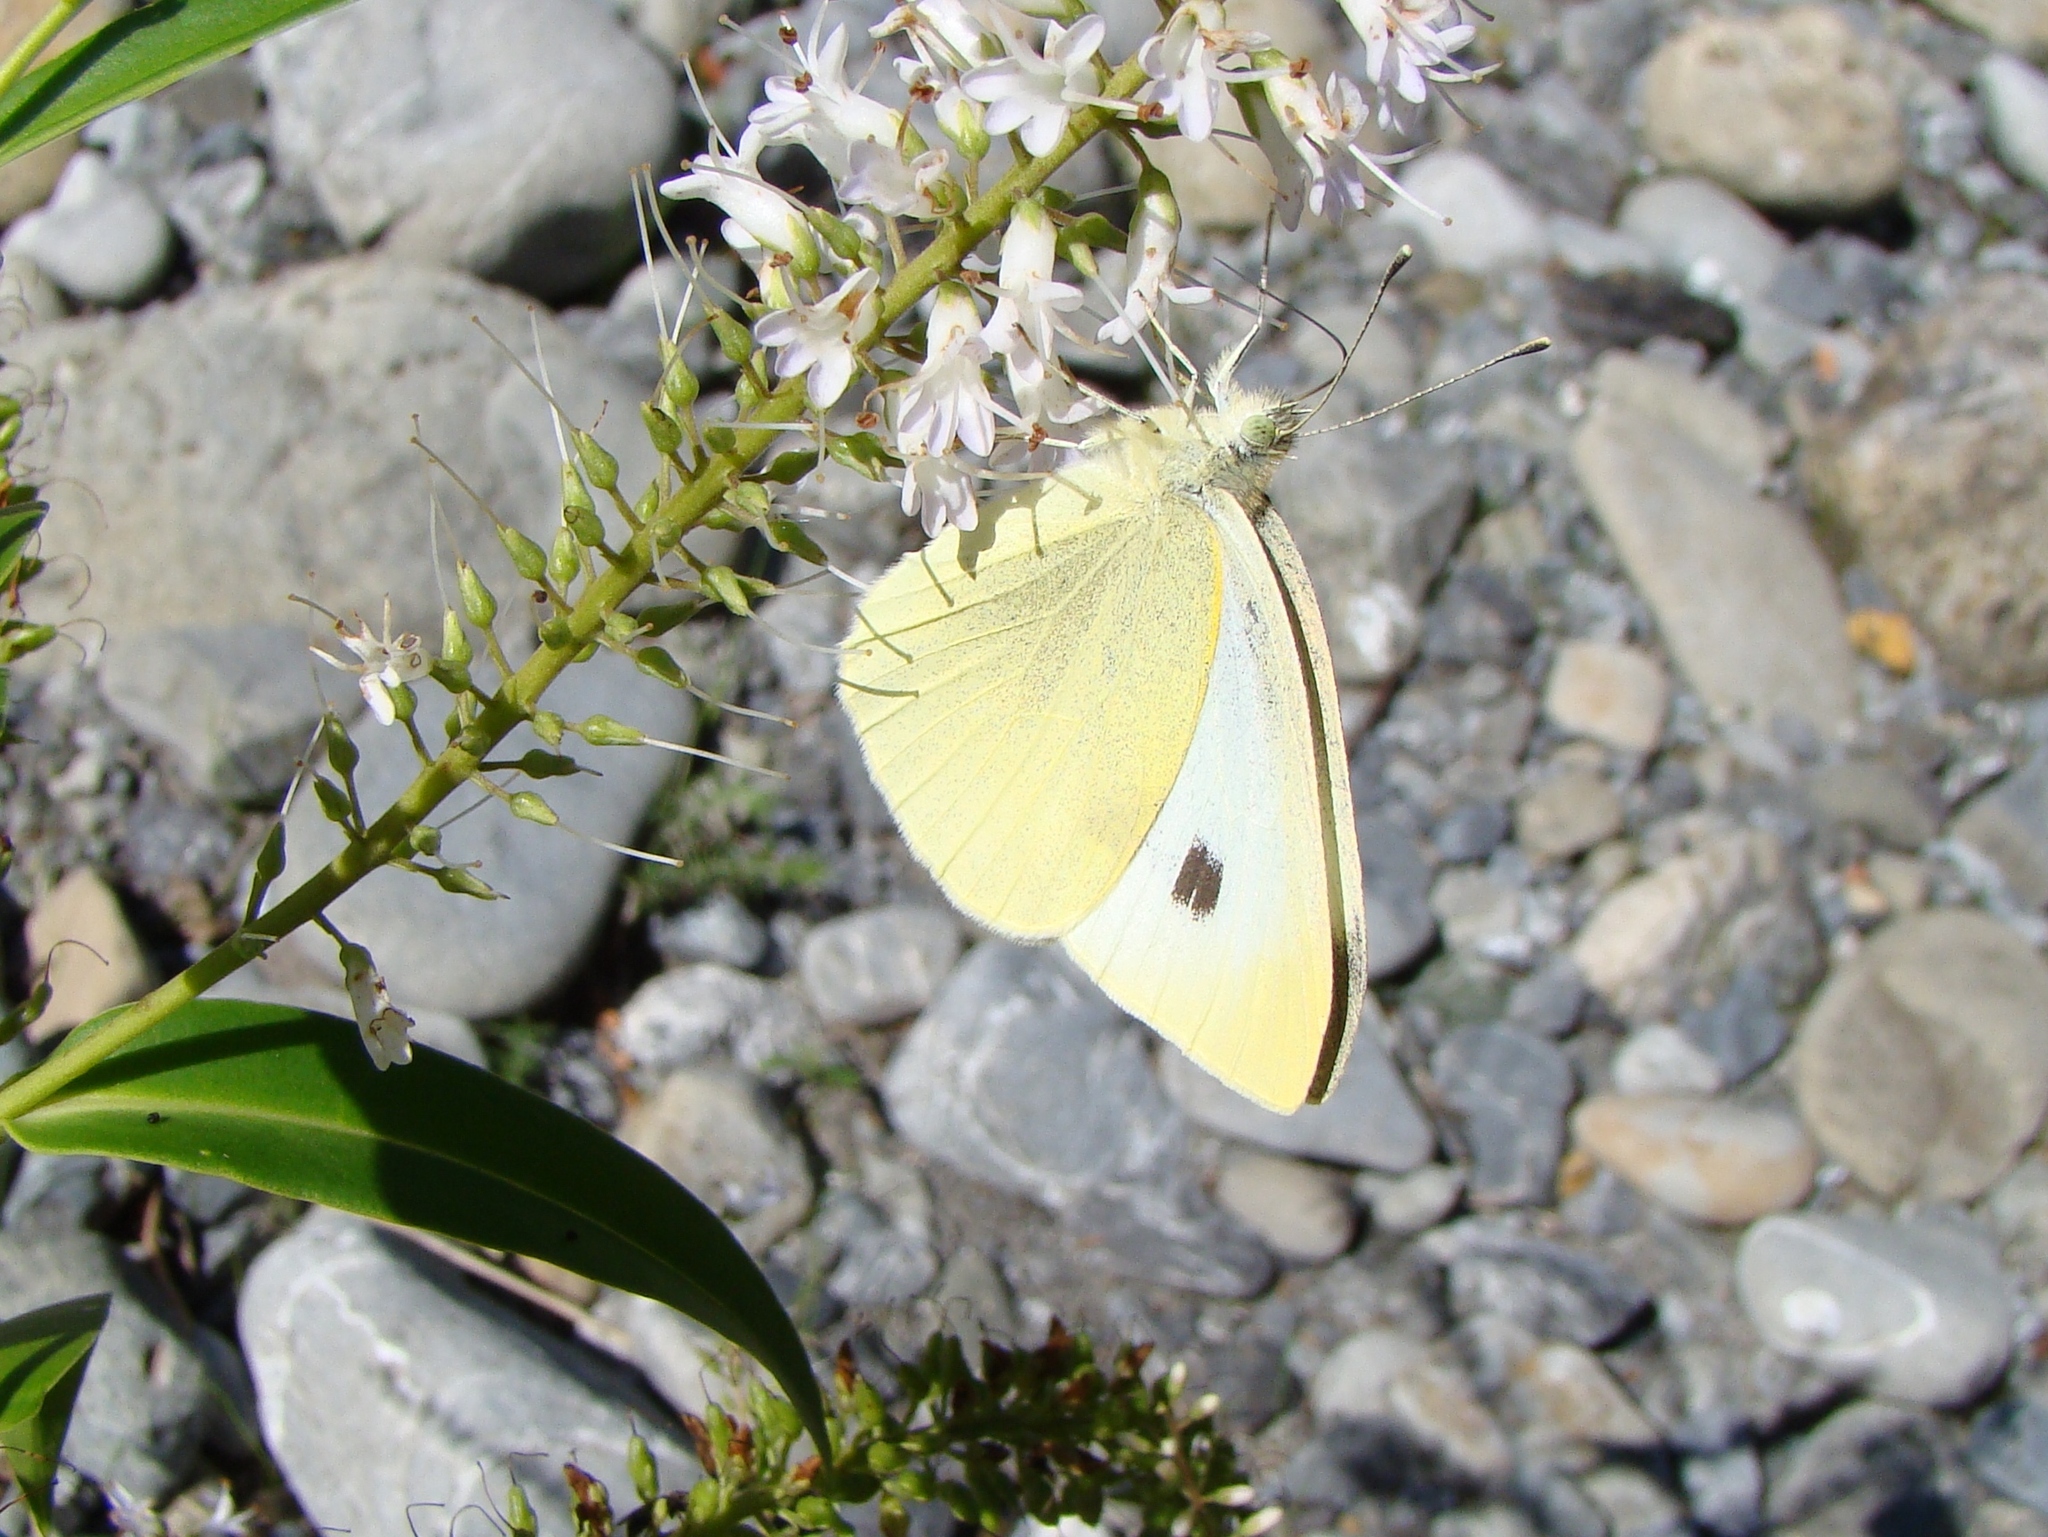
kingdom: Animalia
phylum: Arthropoda
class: Insecta
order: Lepidoptera
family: Pieridae
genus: Pieris
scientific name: Pieris rapae
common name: Small white
